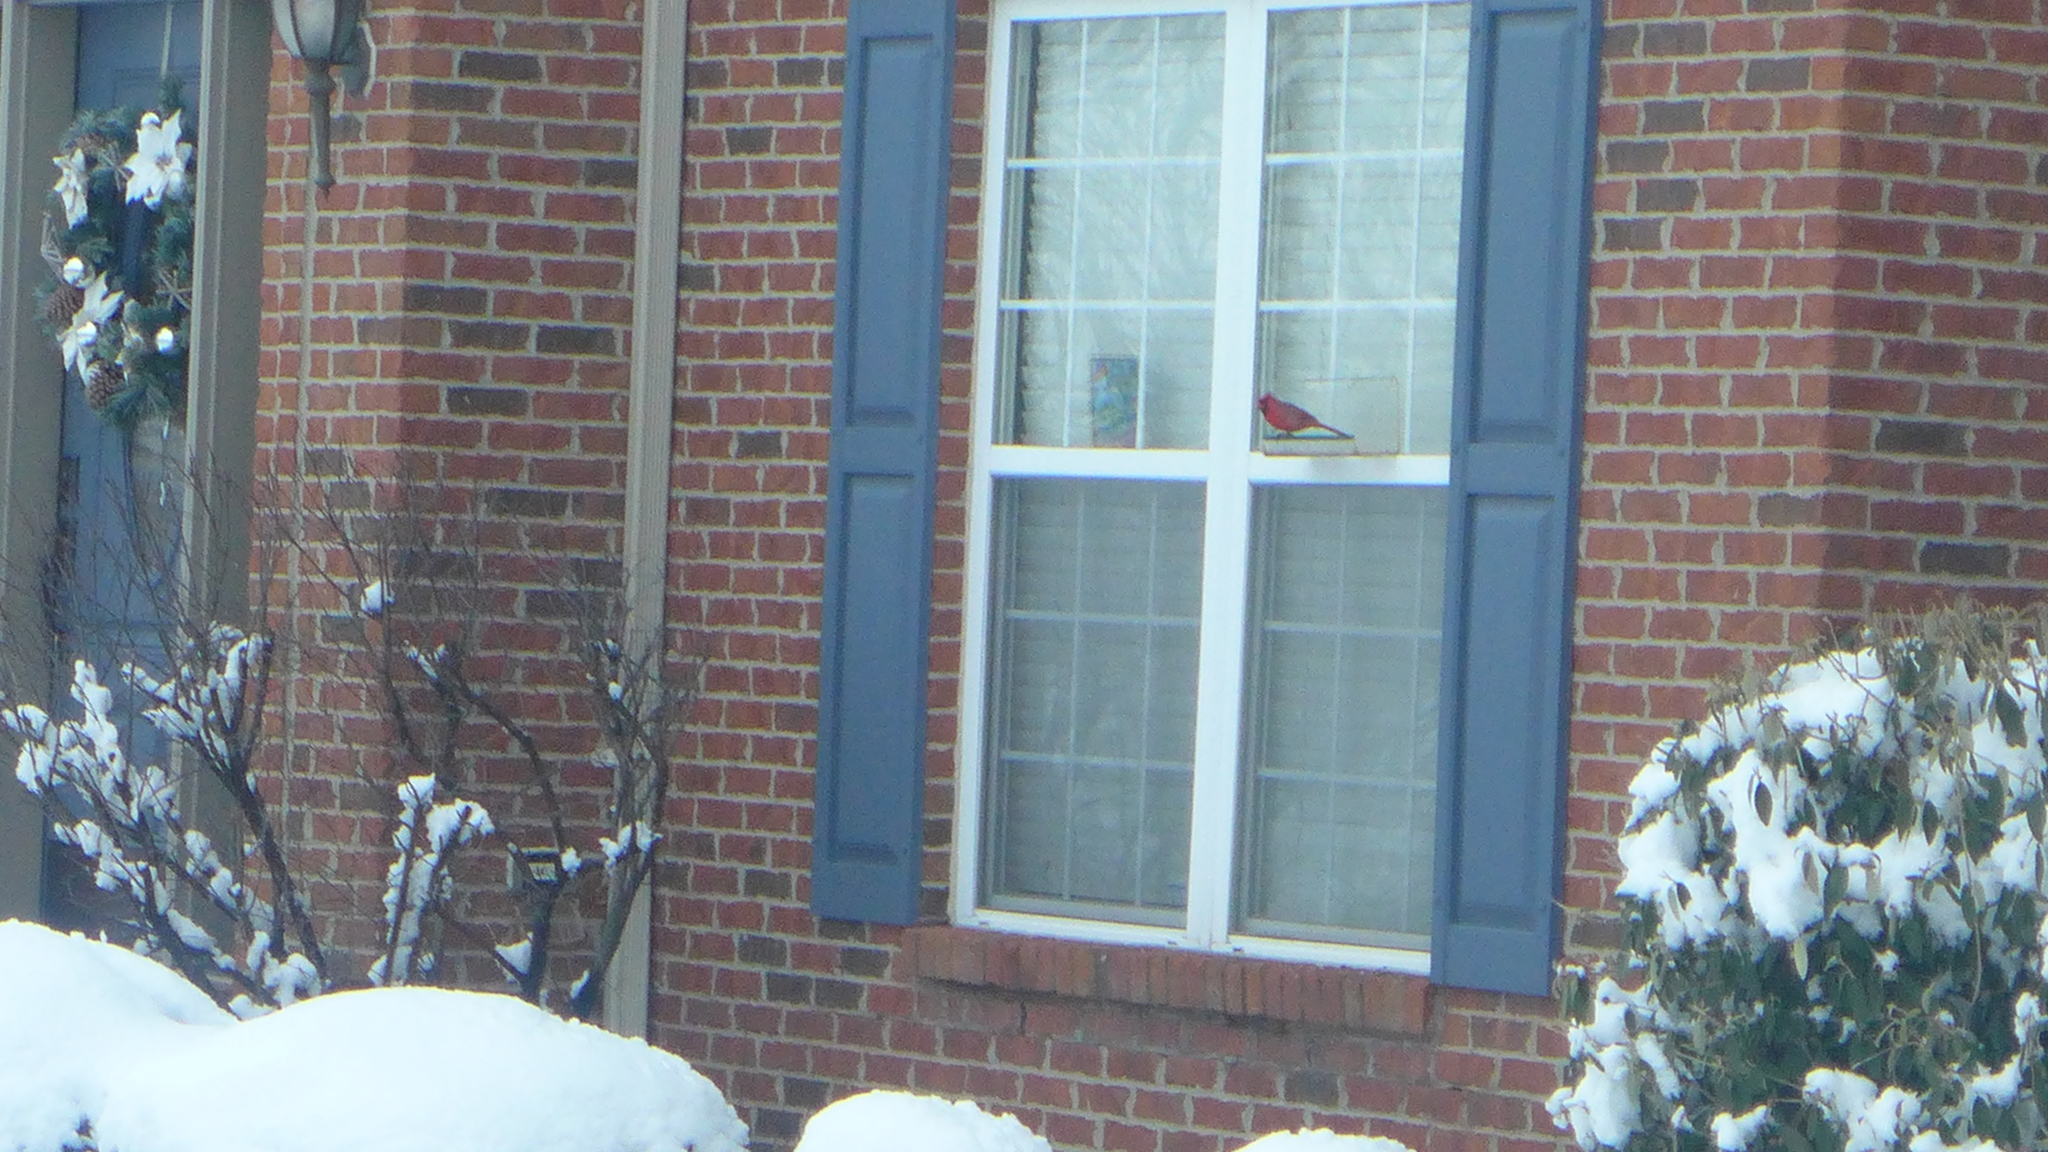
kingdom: Animalia
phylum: Chordata
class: Aves
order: Passeriformes
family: Cardinalidae
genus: Cardinalis
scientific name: Cardinalis cardinalis
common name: Northern cardinal
